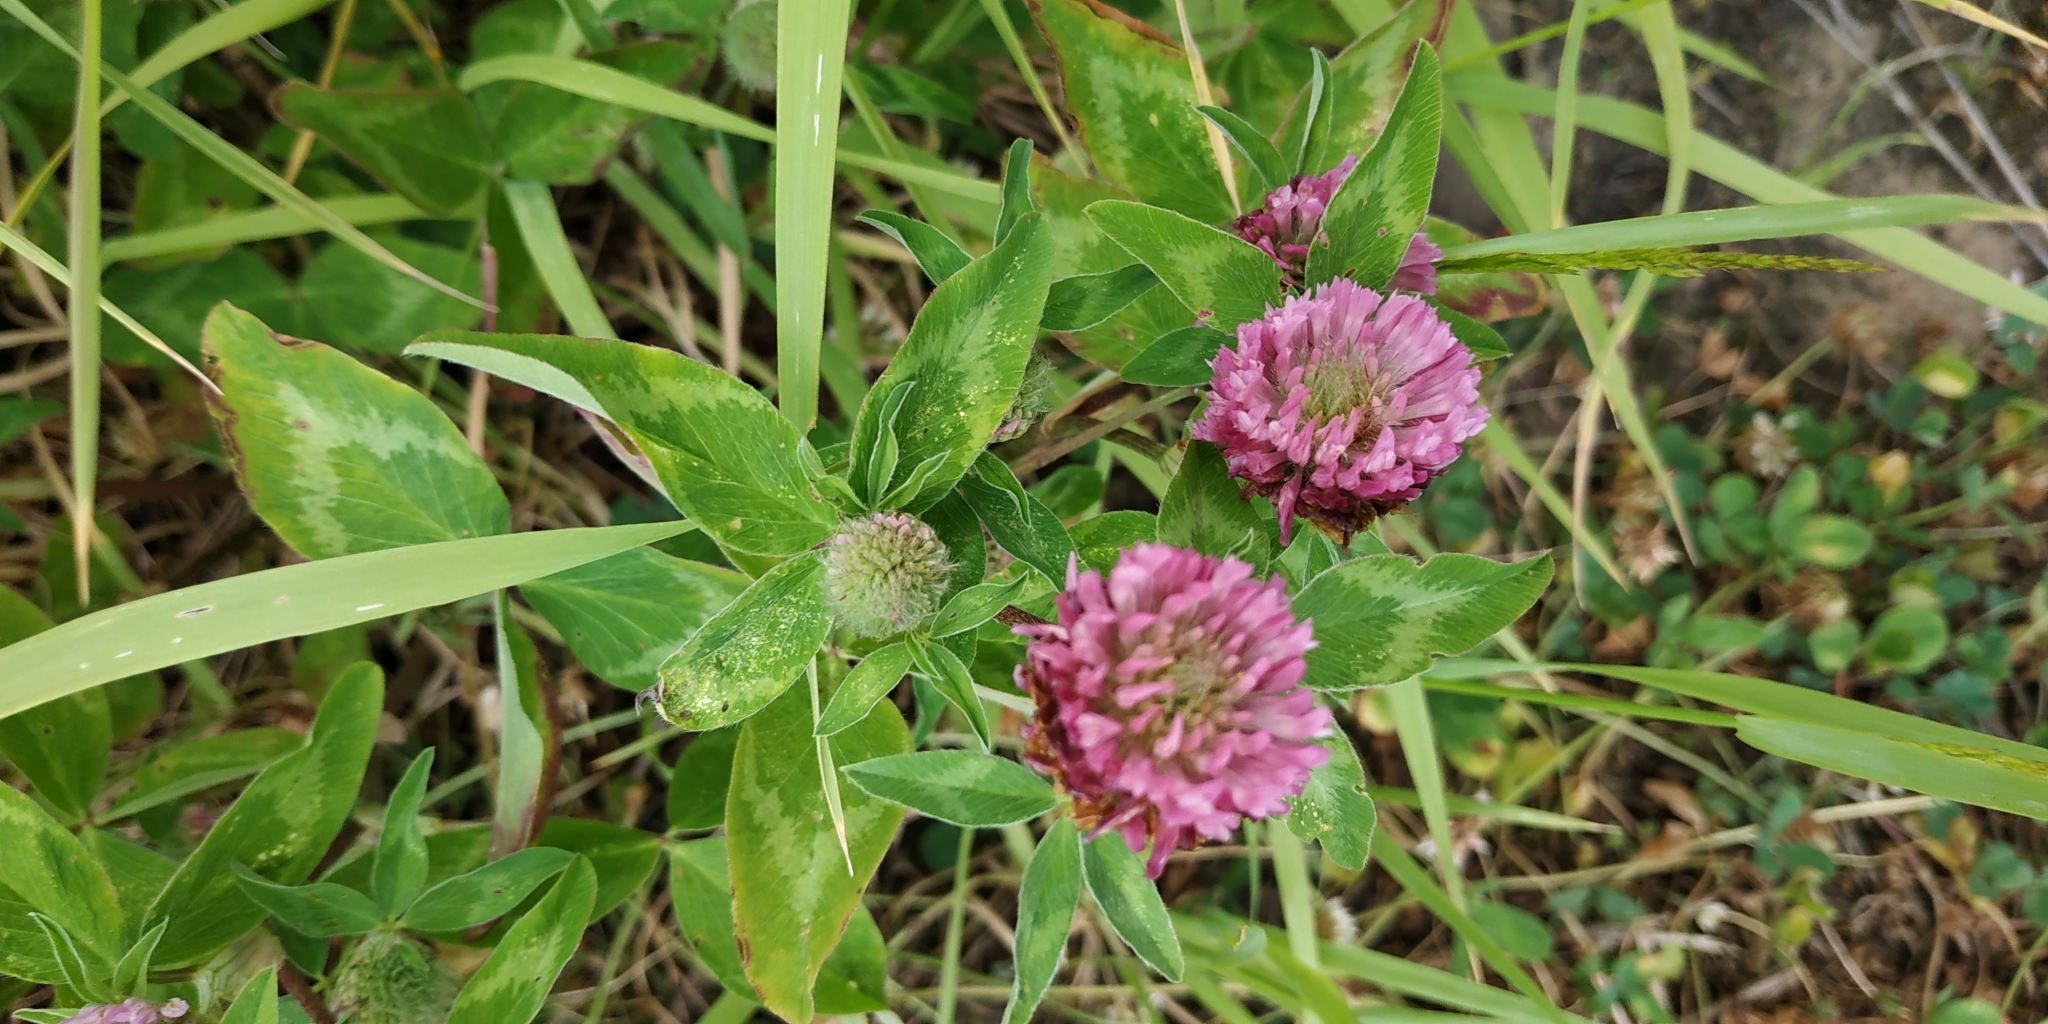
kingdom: Plantae
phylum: Tracheophyta
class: Magnoliopsida
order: Fabales
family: Fabaceae
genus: Trifolium
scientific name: Trifolium pratense
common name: Red clover
